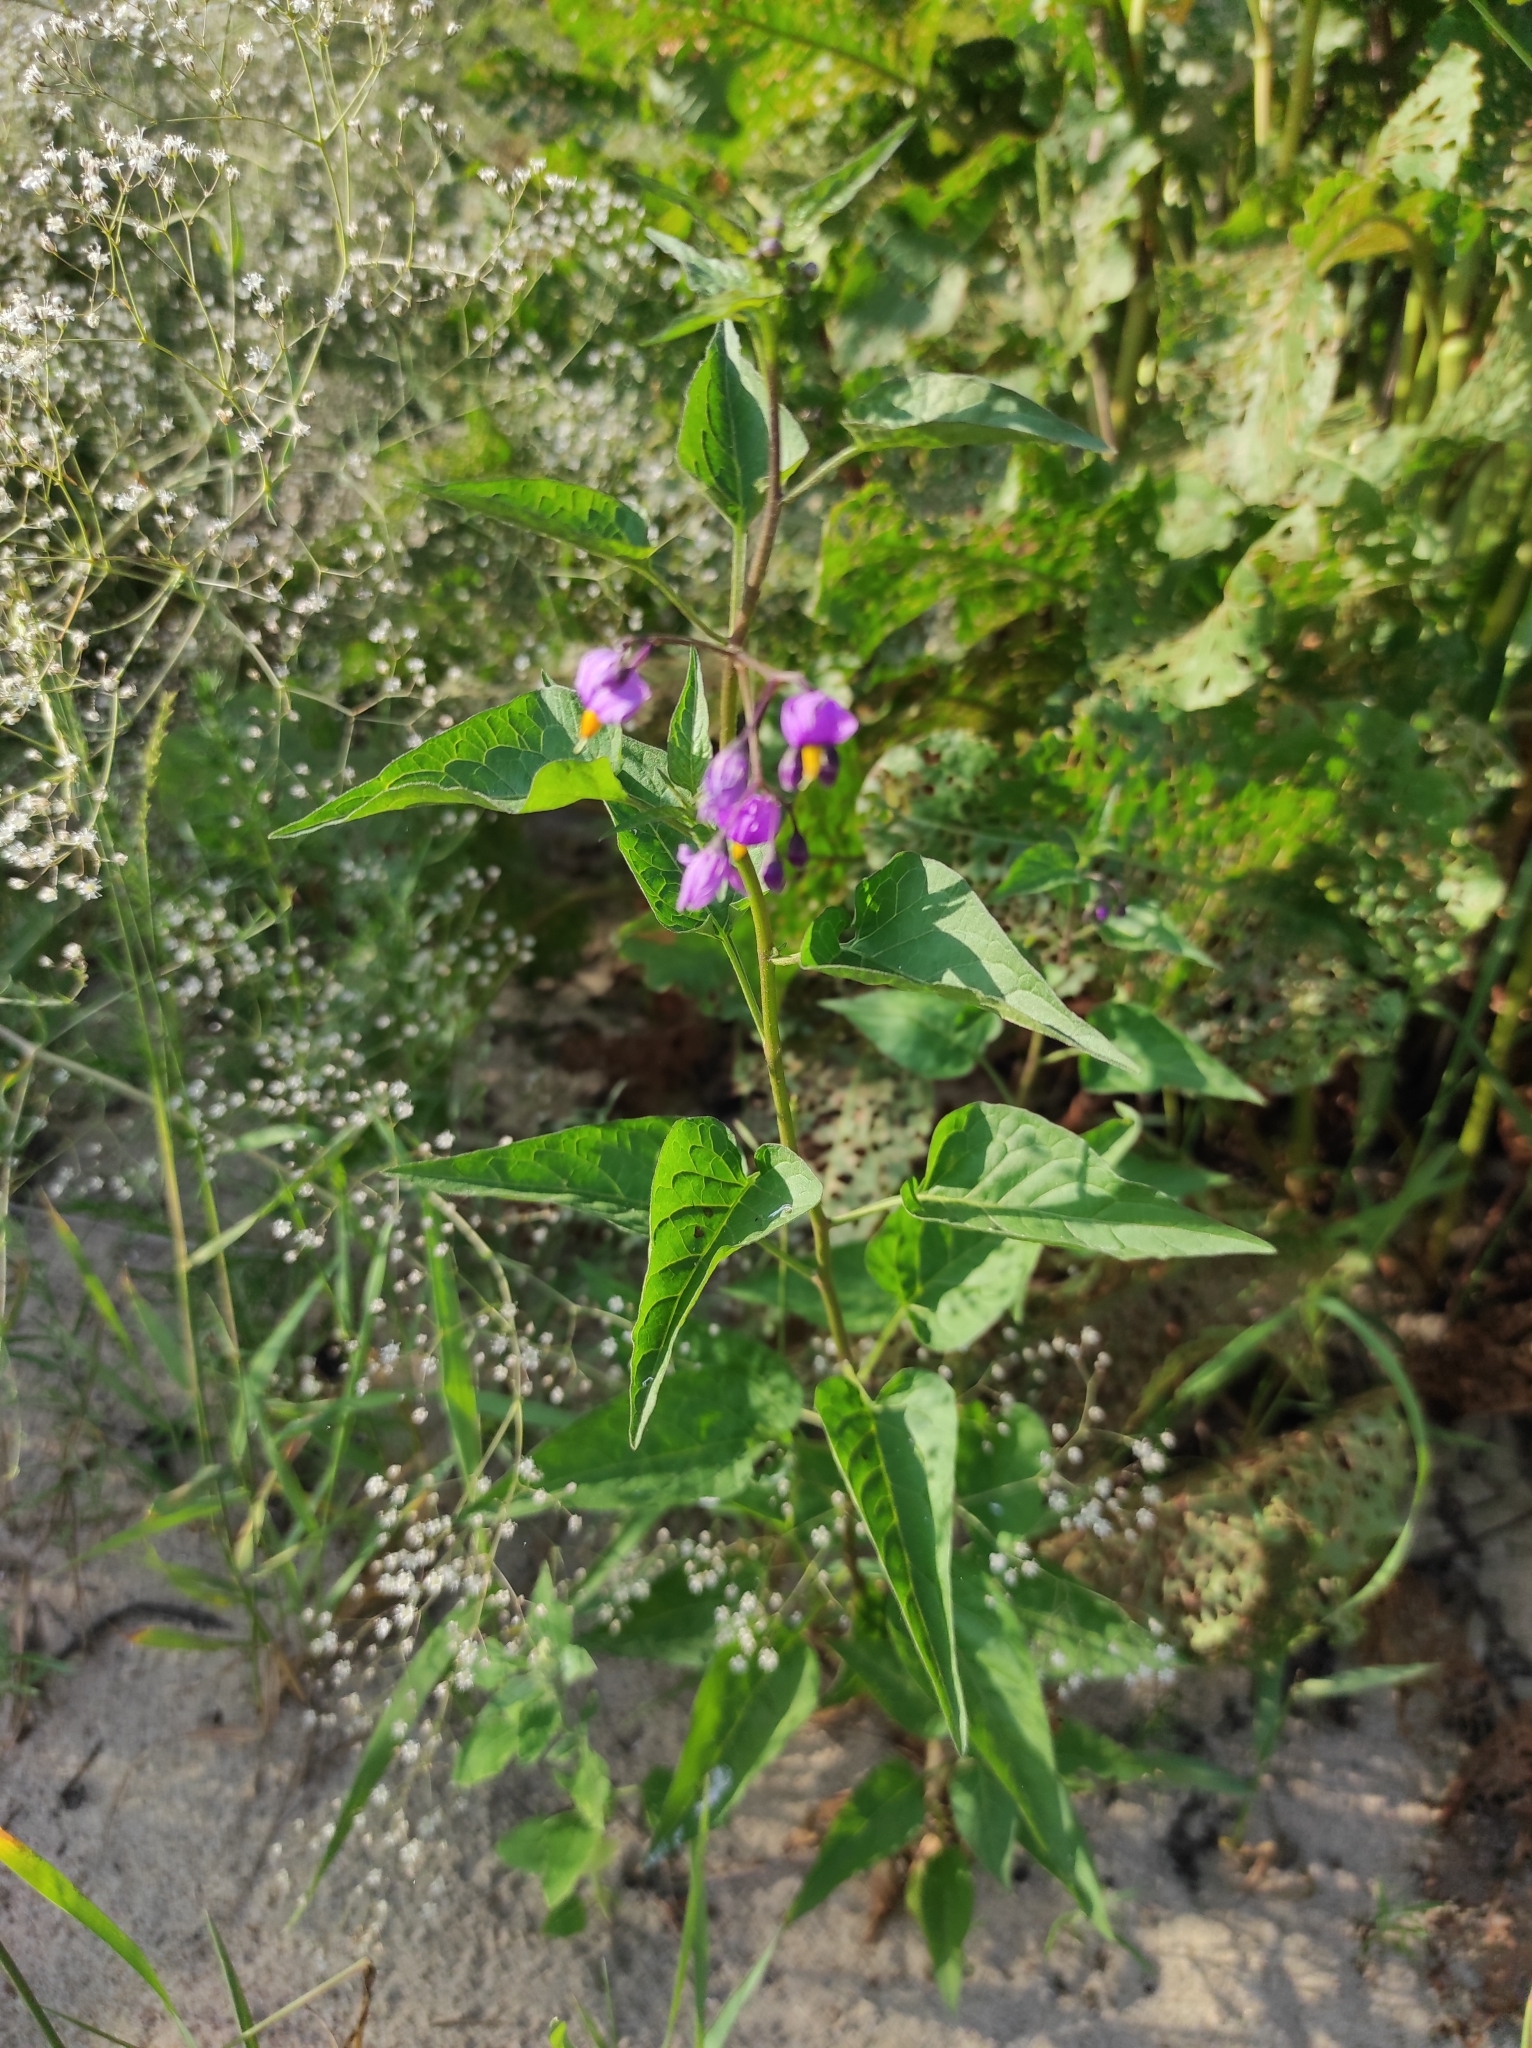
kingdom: Plantae
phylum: Tracheophyta
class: Magnoliopsida
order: Solanales
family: Solanaceae
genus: Solanum
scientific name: Solanum dulcamara
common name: Climbing nightshade
